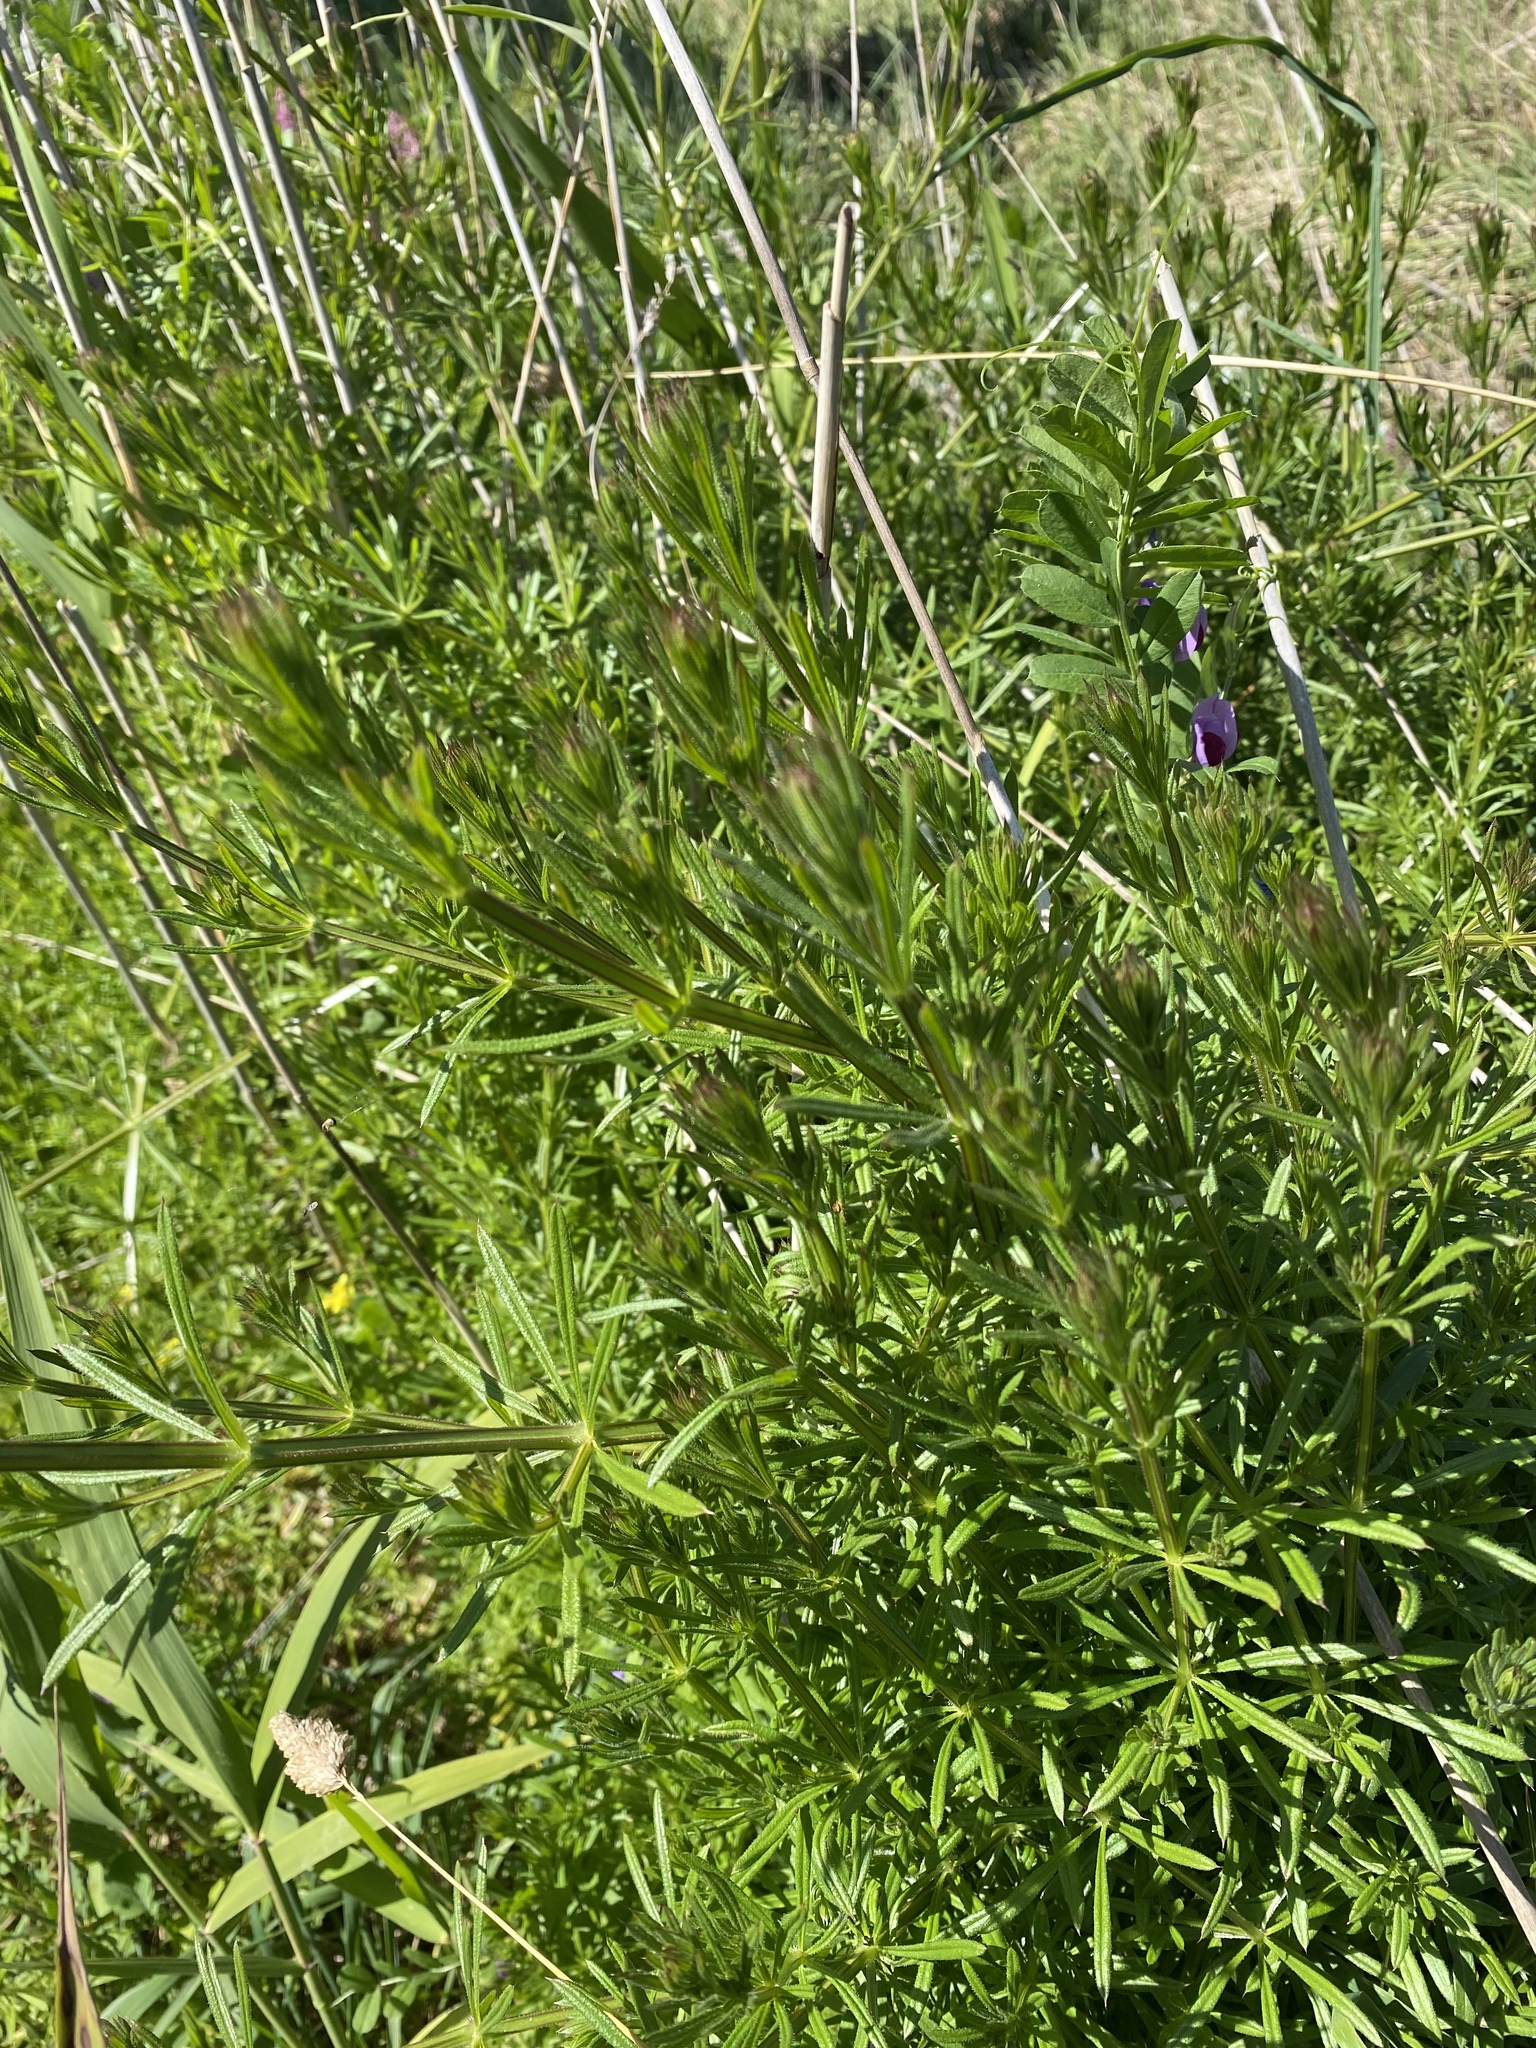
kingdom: Plantae
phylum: Tracheophyta
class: Magnoliopsida
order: Gentianales
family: Rubiaceae
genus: Galium
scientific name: Galium aparine
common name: Cleavers
